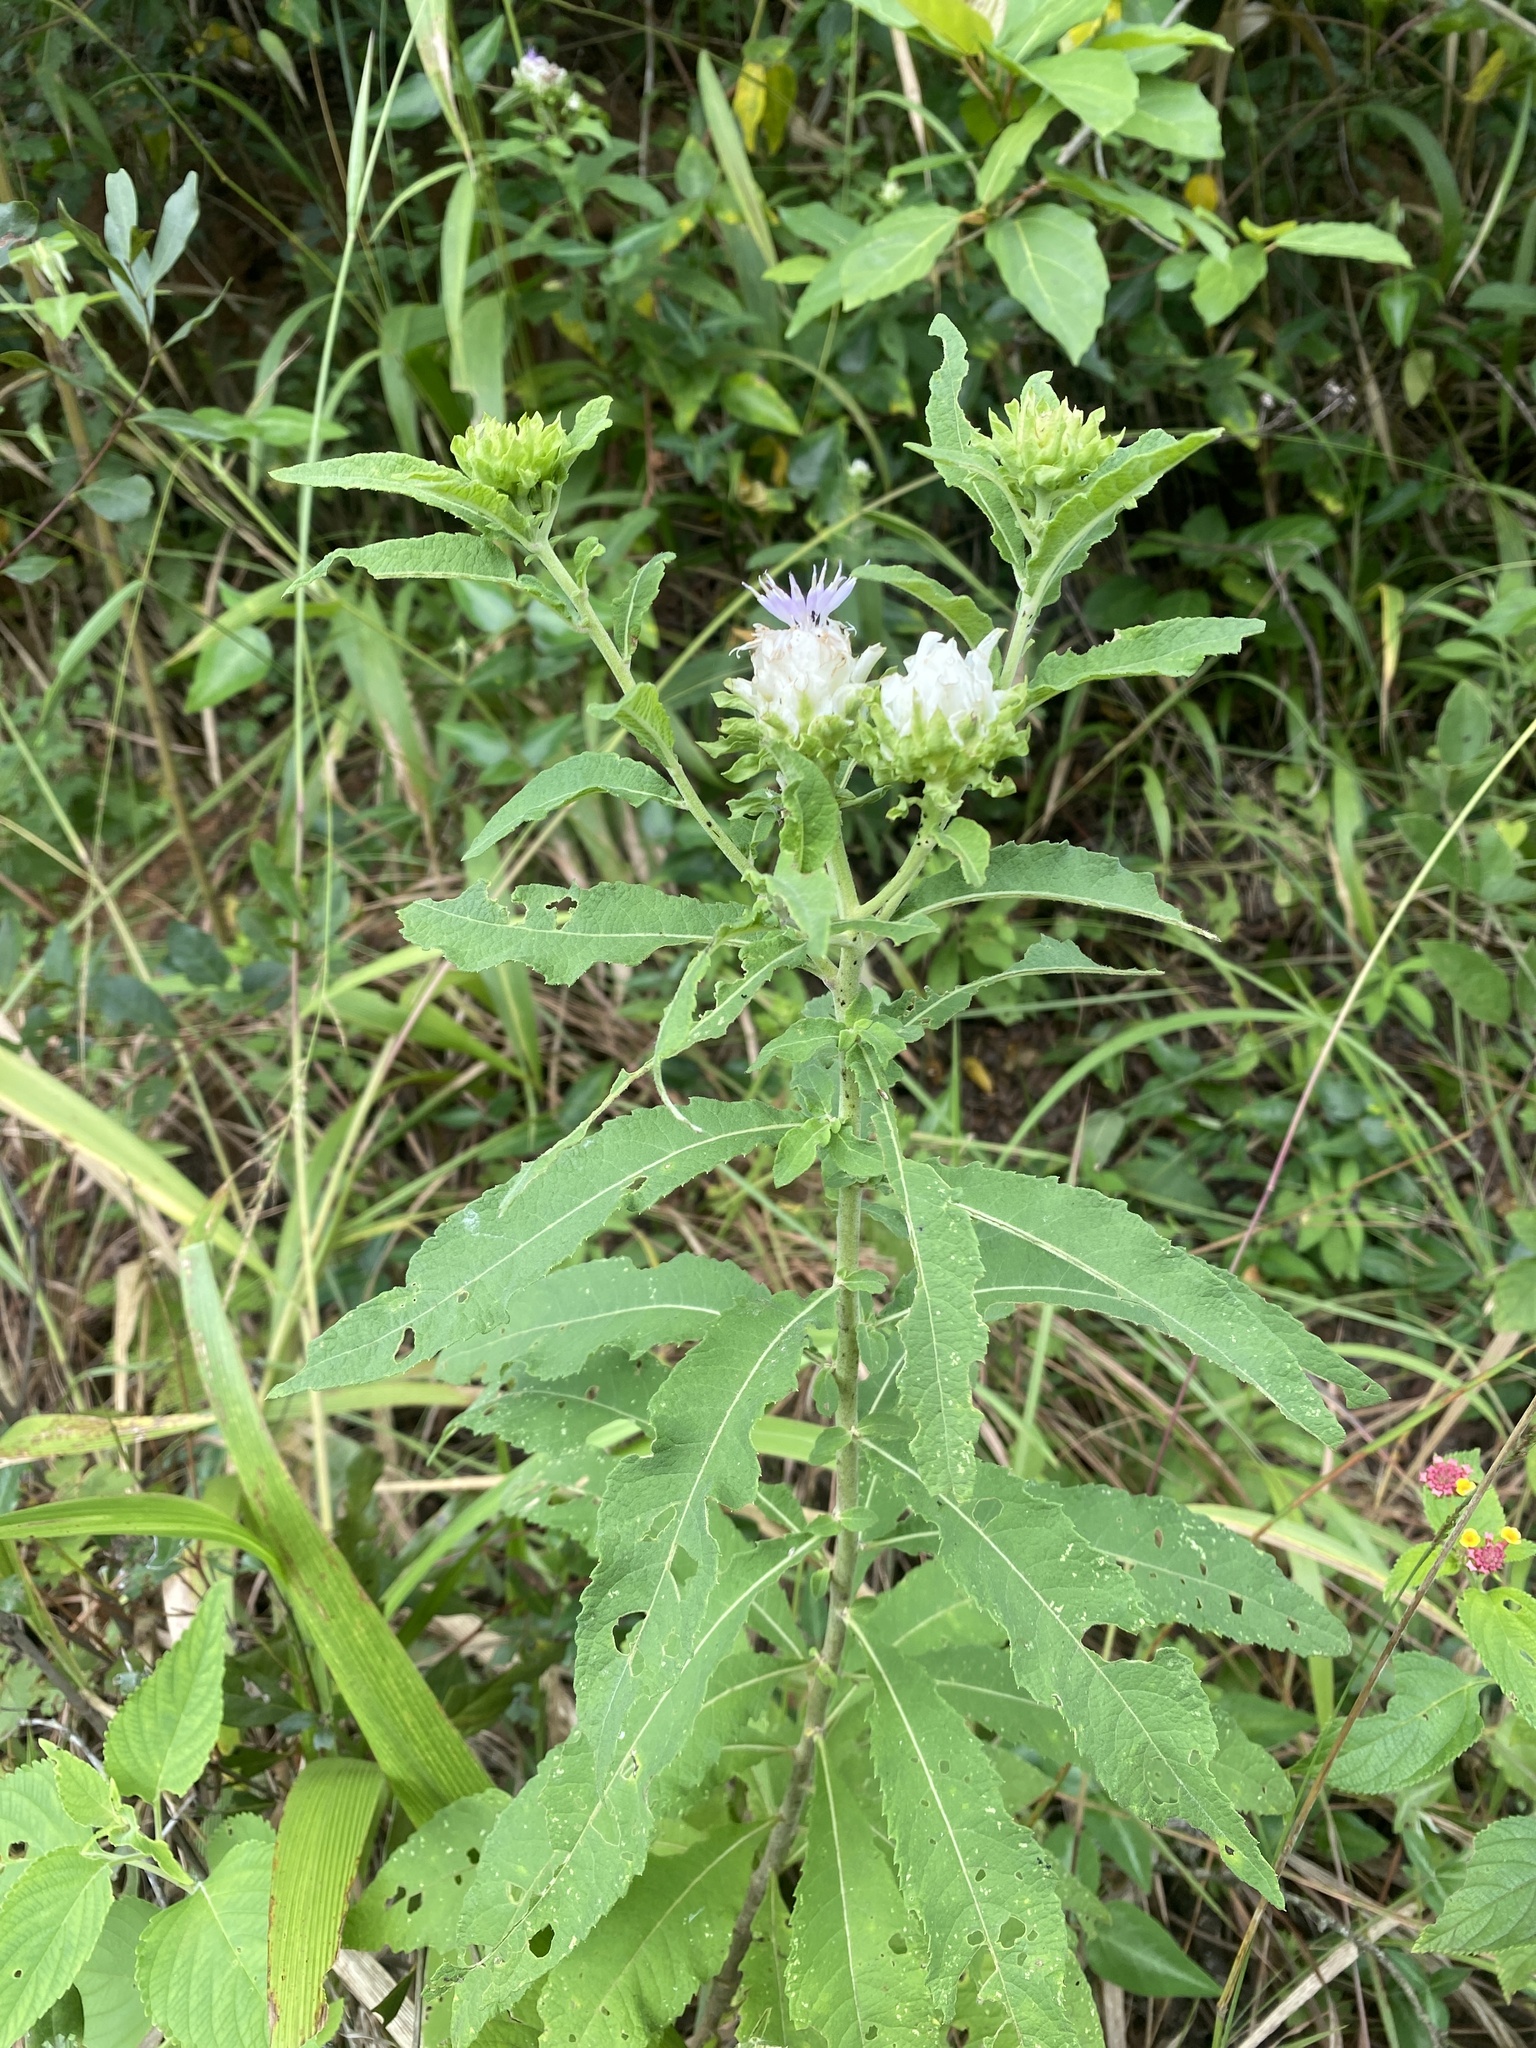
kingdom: Plantae
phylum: Tracheophyta
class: Magnoliopsida
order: Asterales
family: Asteraceae
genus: Baccharoides
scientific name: Baccharoides adoensis
